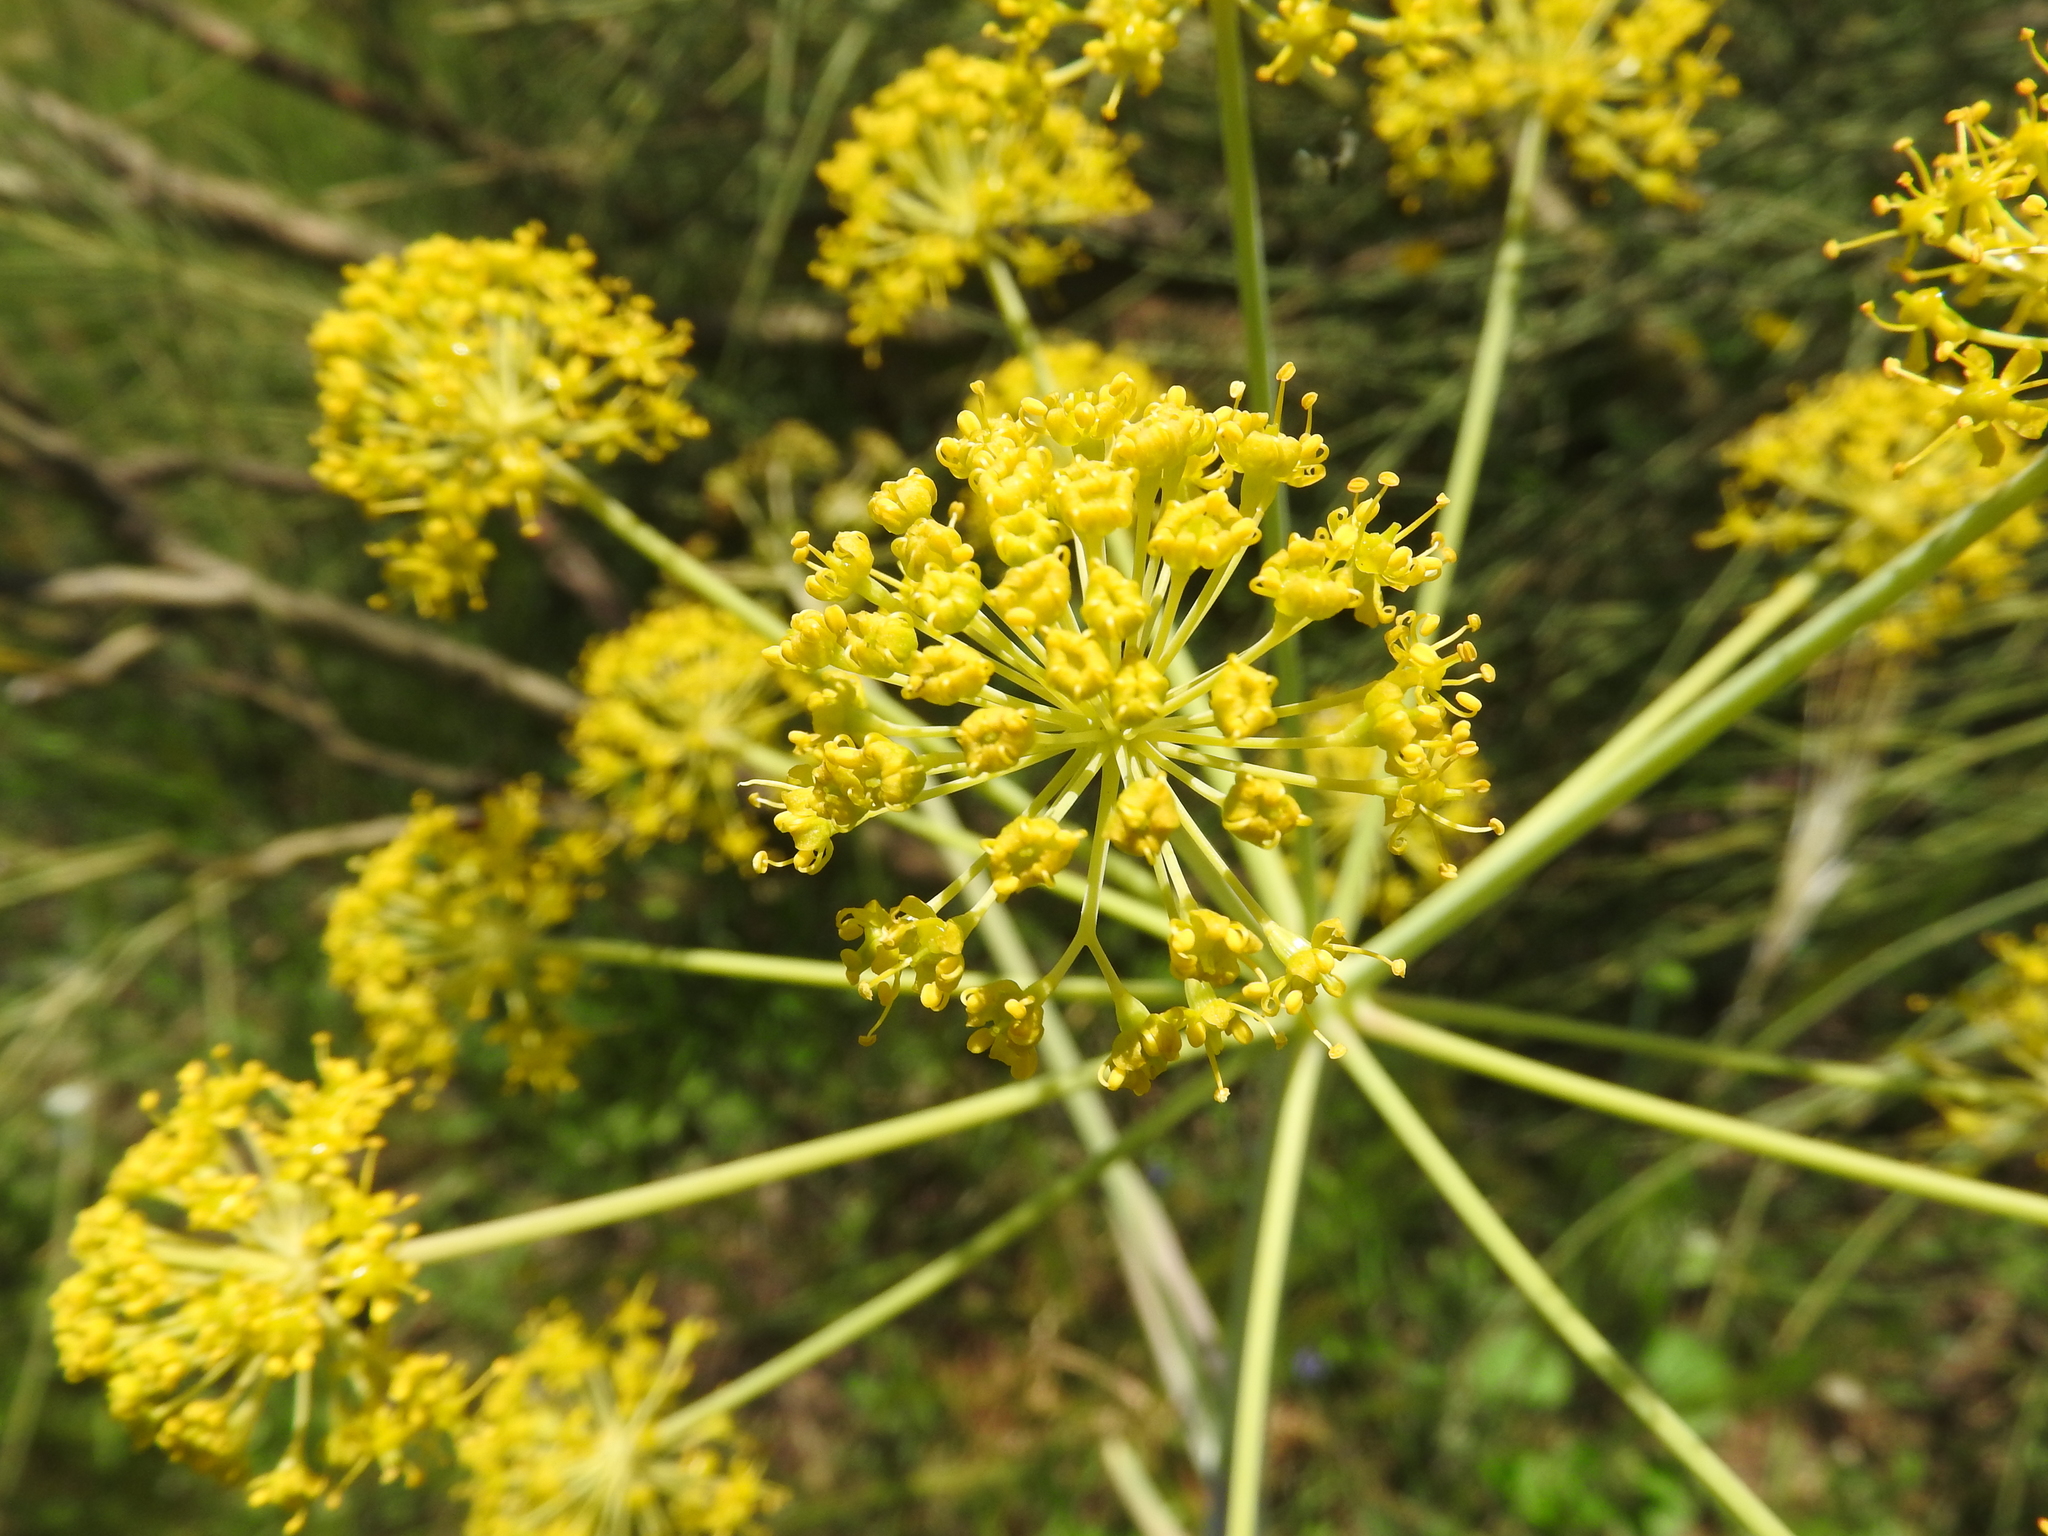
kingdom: Plantae
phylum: Tracheophyta
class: Magnoliopsida
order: Apiales
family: Apiaceae
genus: Thapsia
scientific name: Thapsia garganica
